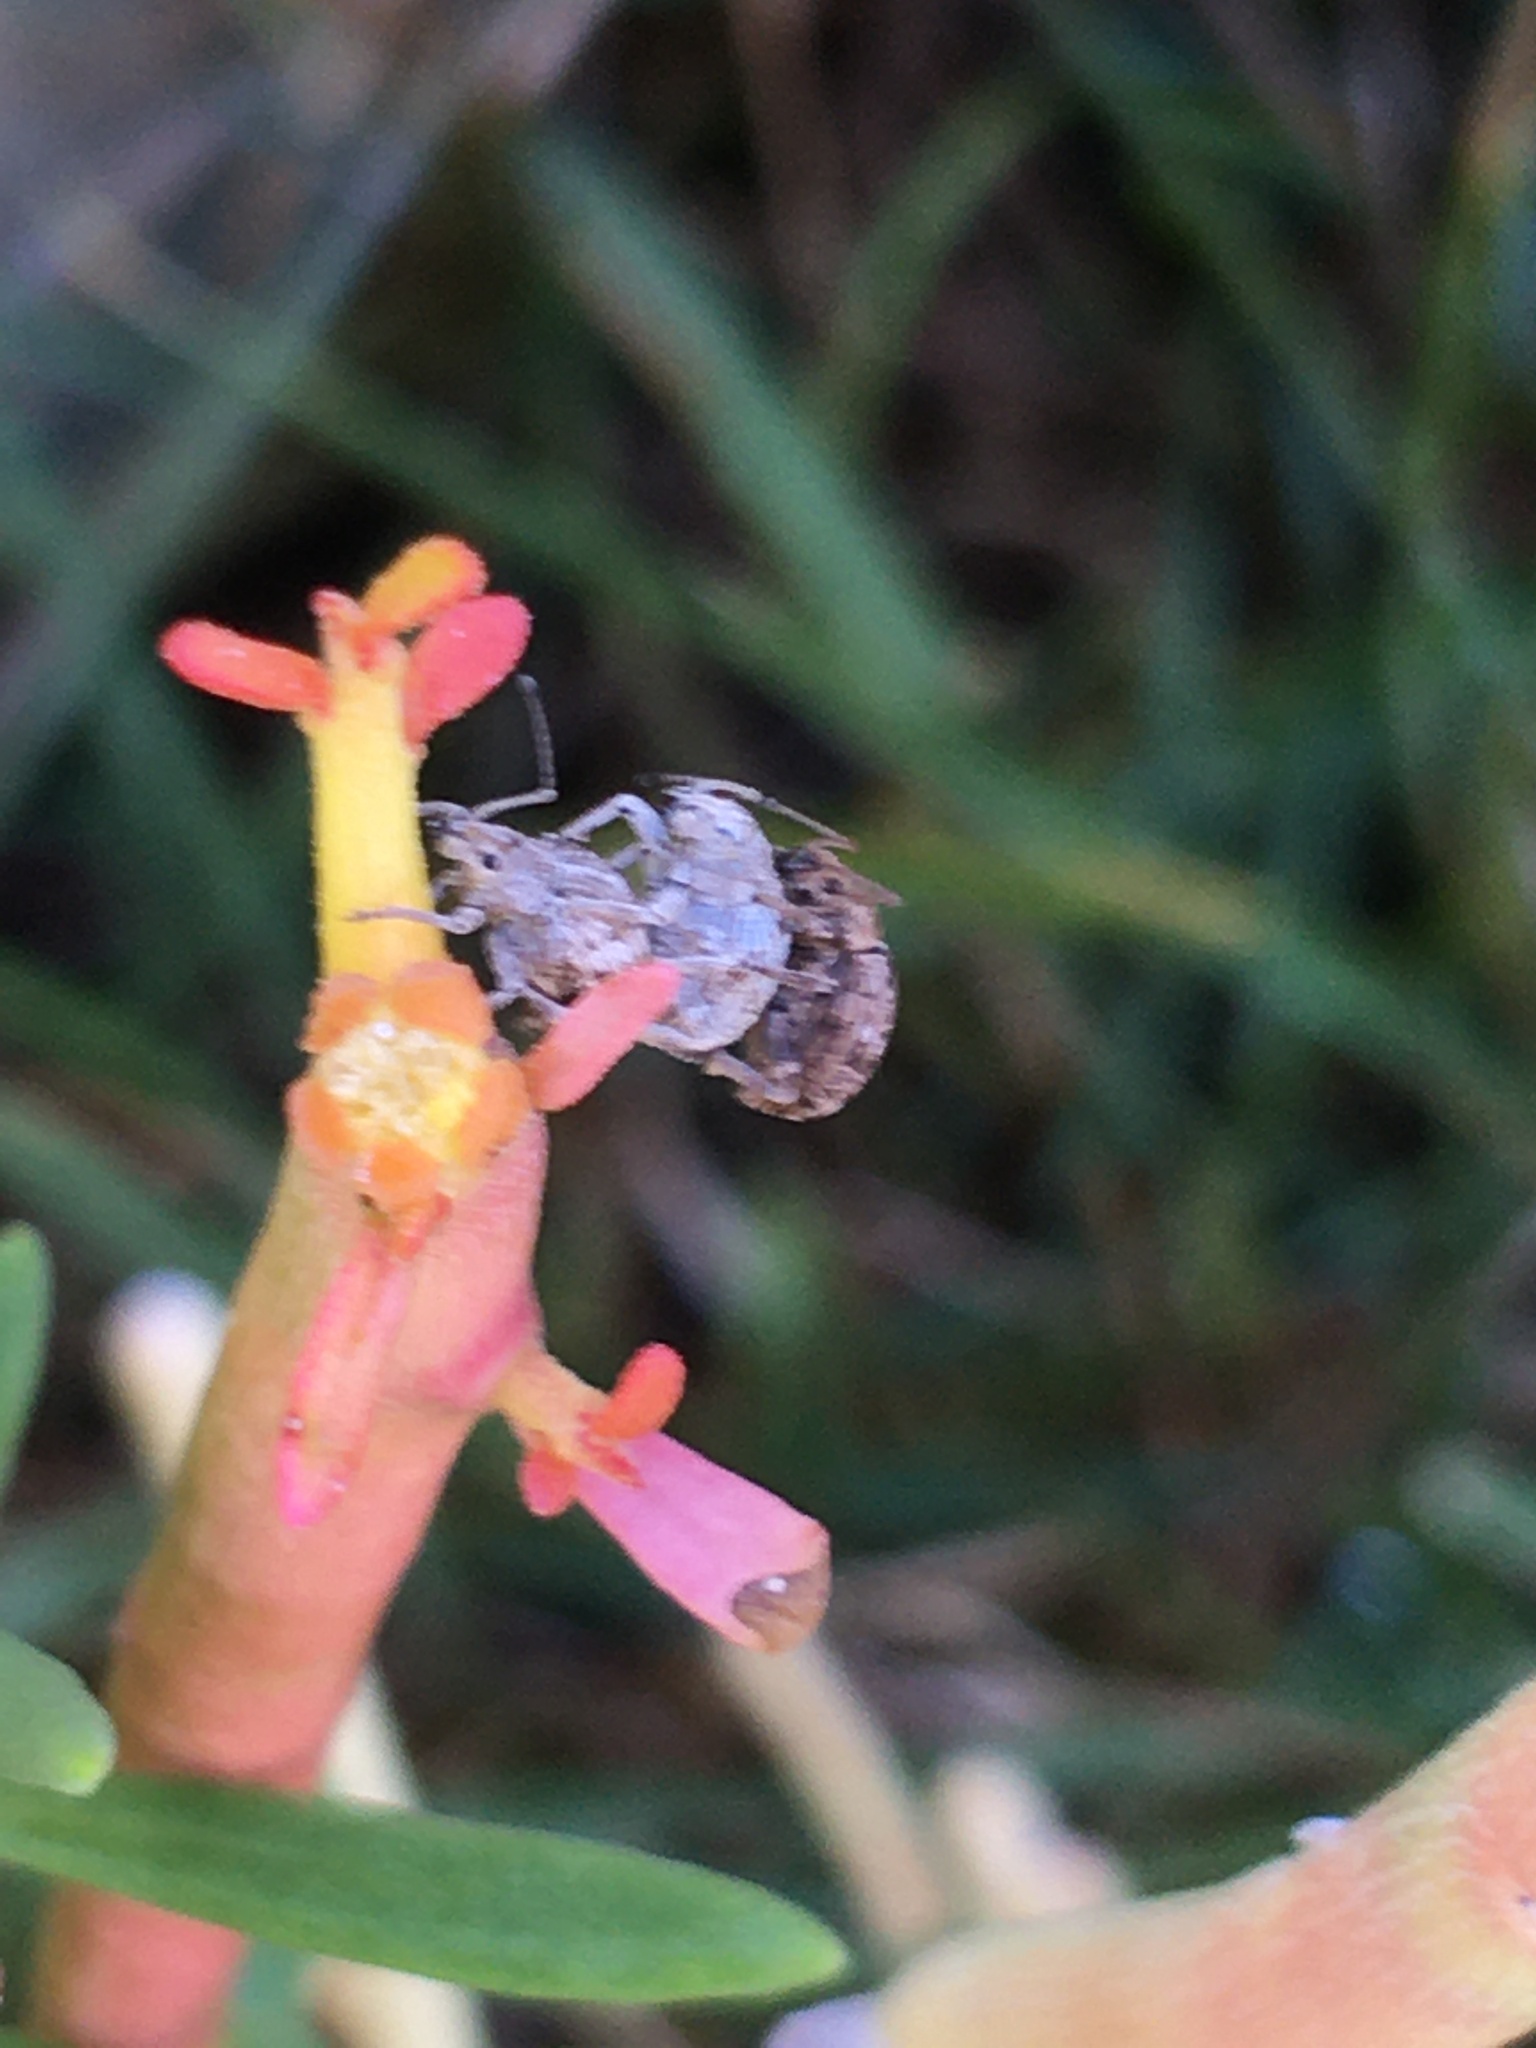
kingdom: Animalia
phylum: Arthropoda
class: Insecta
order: Coleoptera
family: Curculionidae
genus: Ellimenistes
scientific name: Ellimenistes laesicollis
